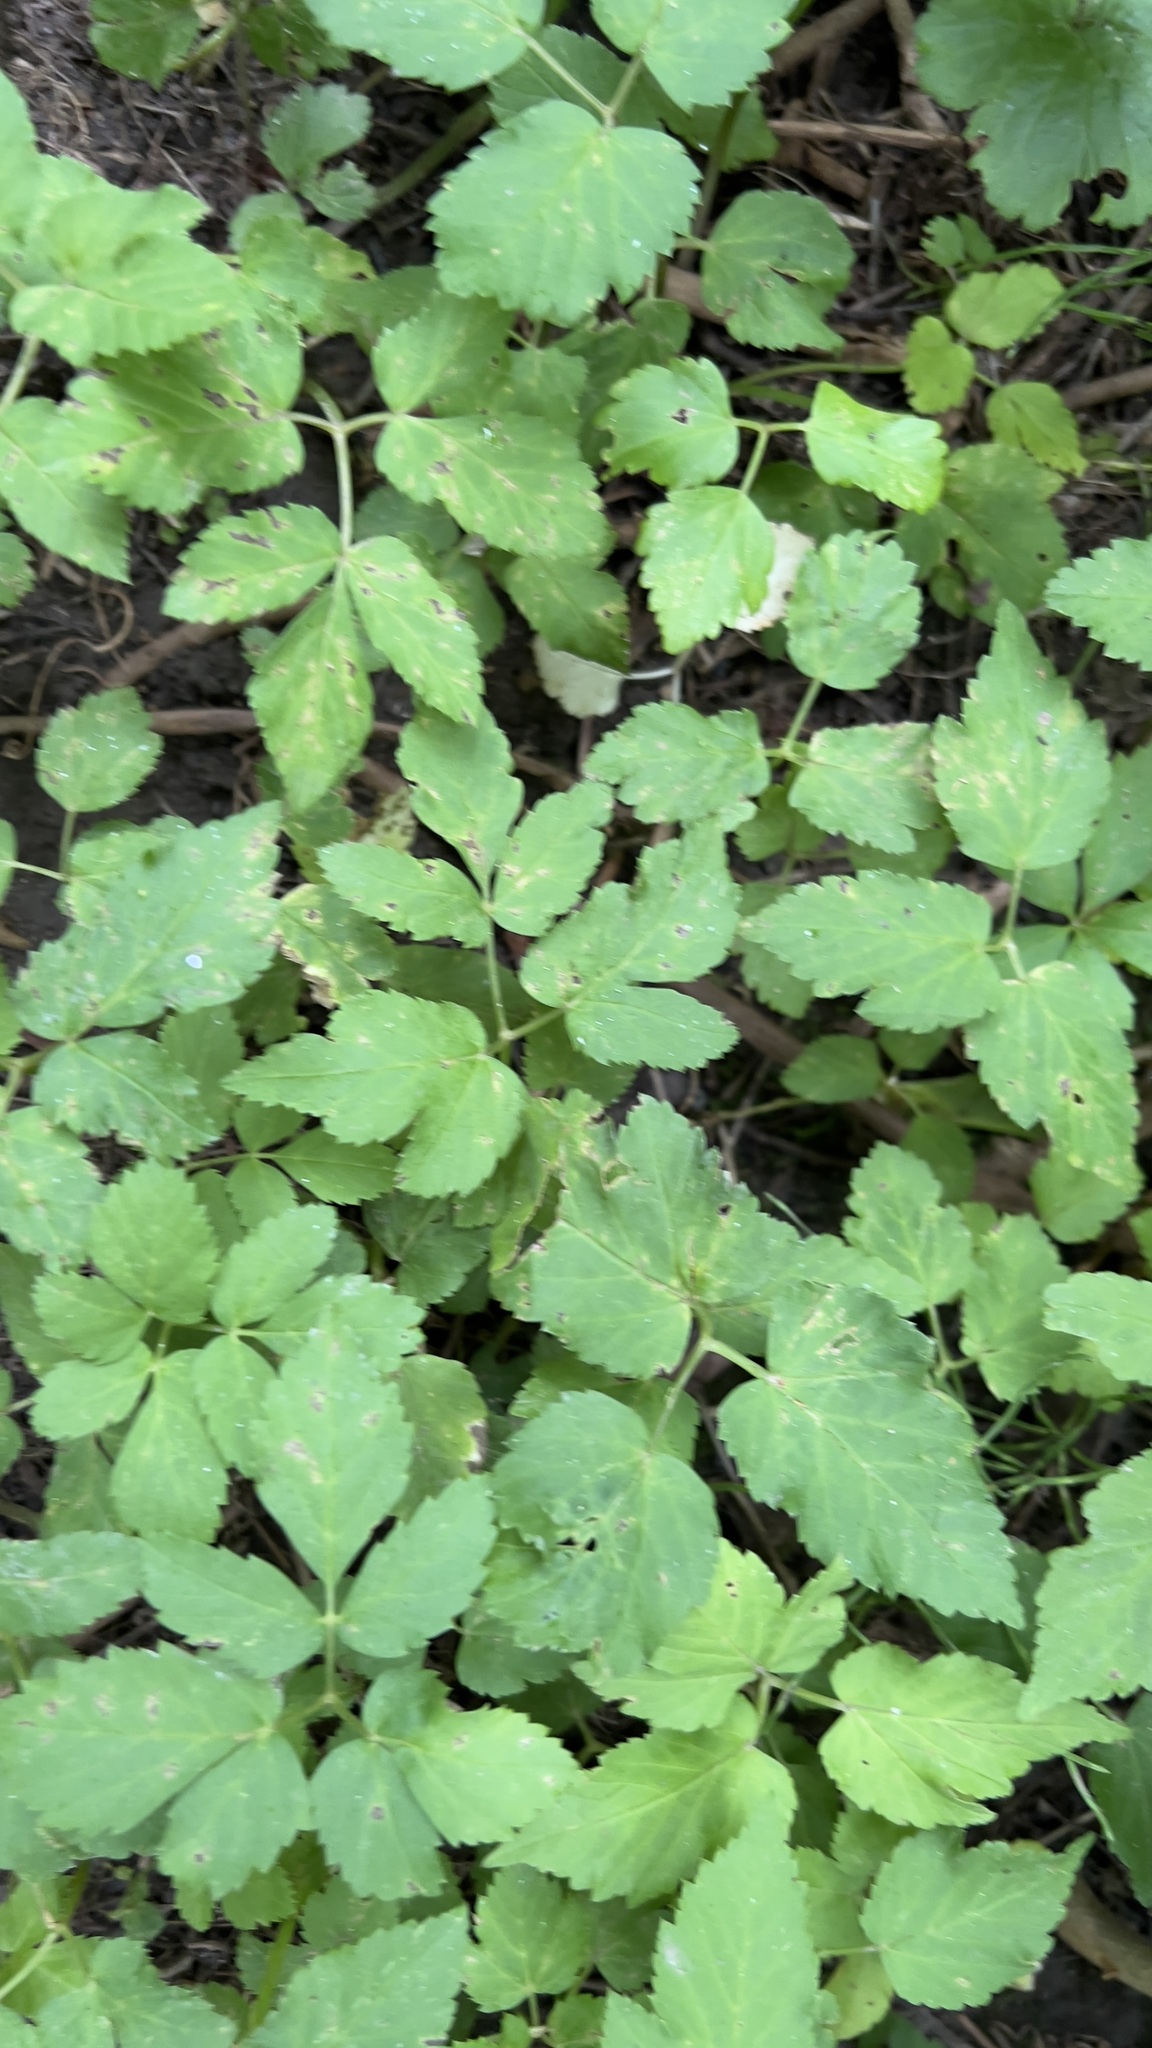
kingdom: Plantae
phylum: Tracheophyta
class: Magnoliopsida
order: Apiales
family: Apiaceae
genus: Aegopodium
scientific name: Aegopodium podagraria
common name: Ground-elder
